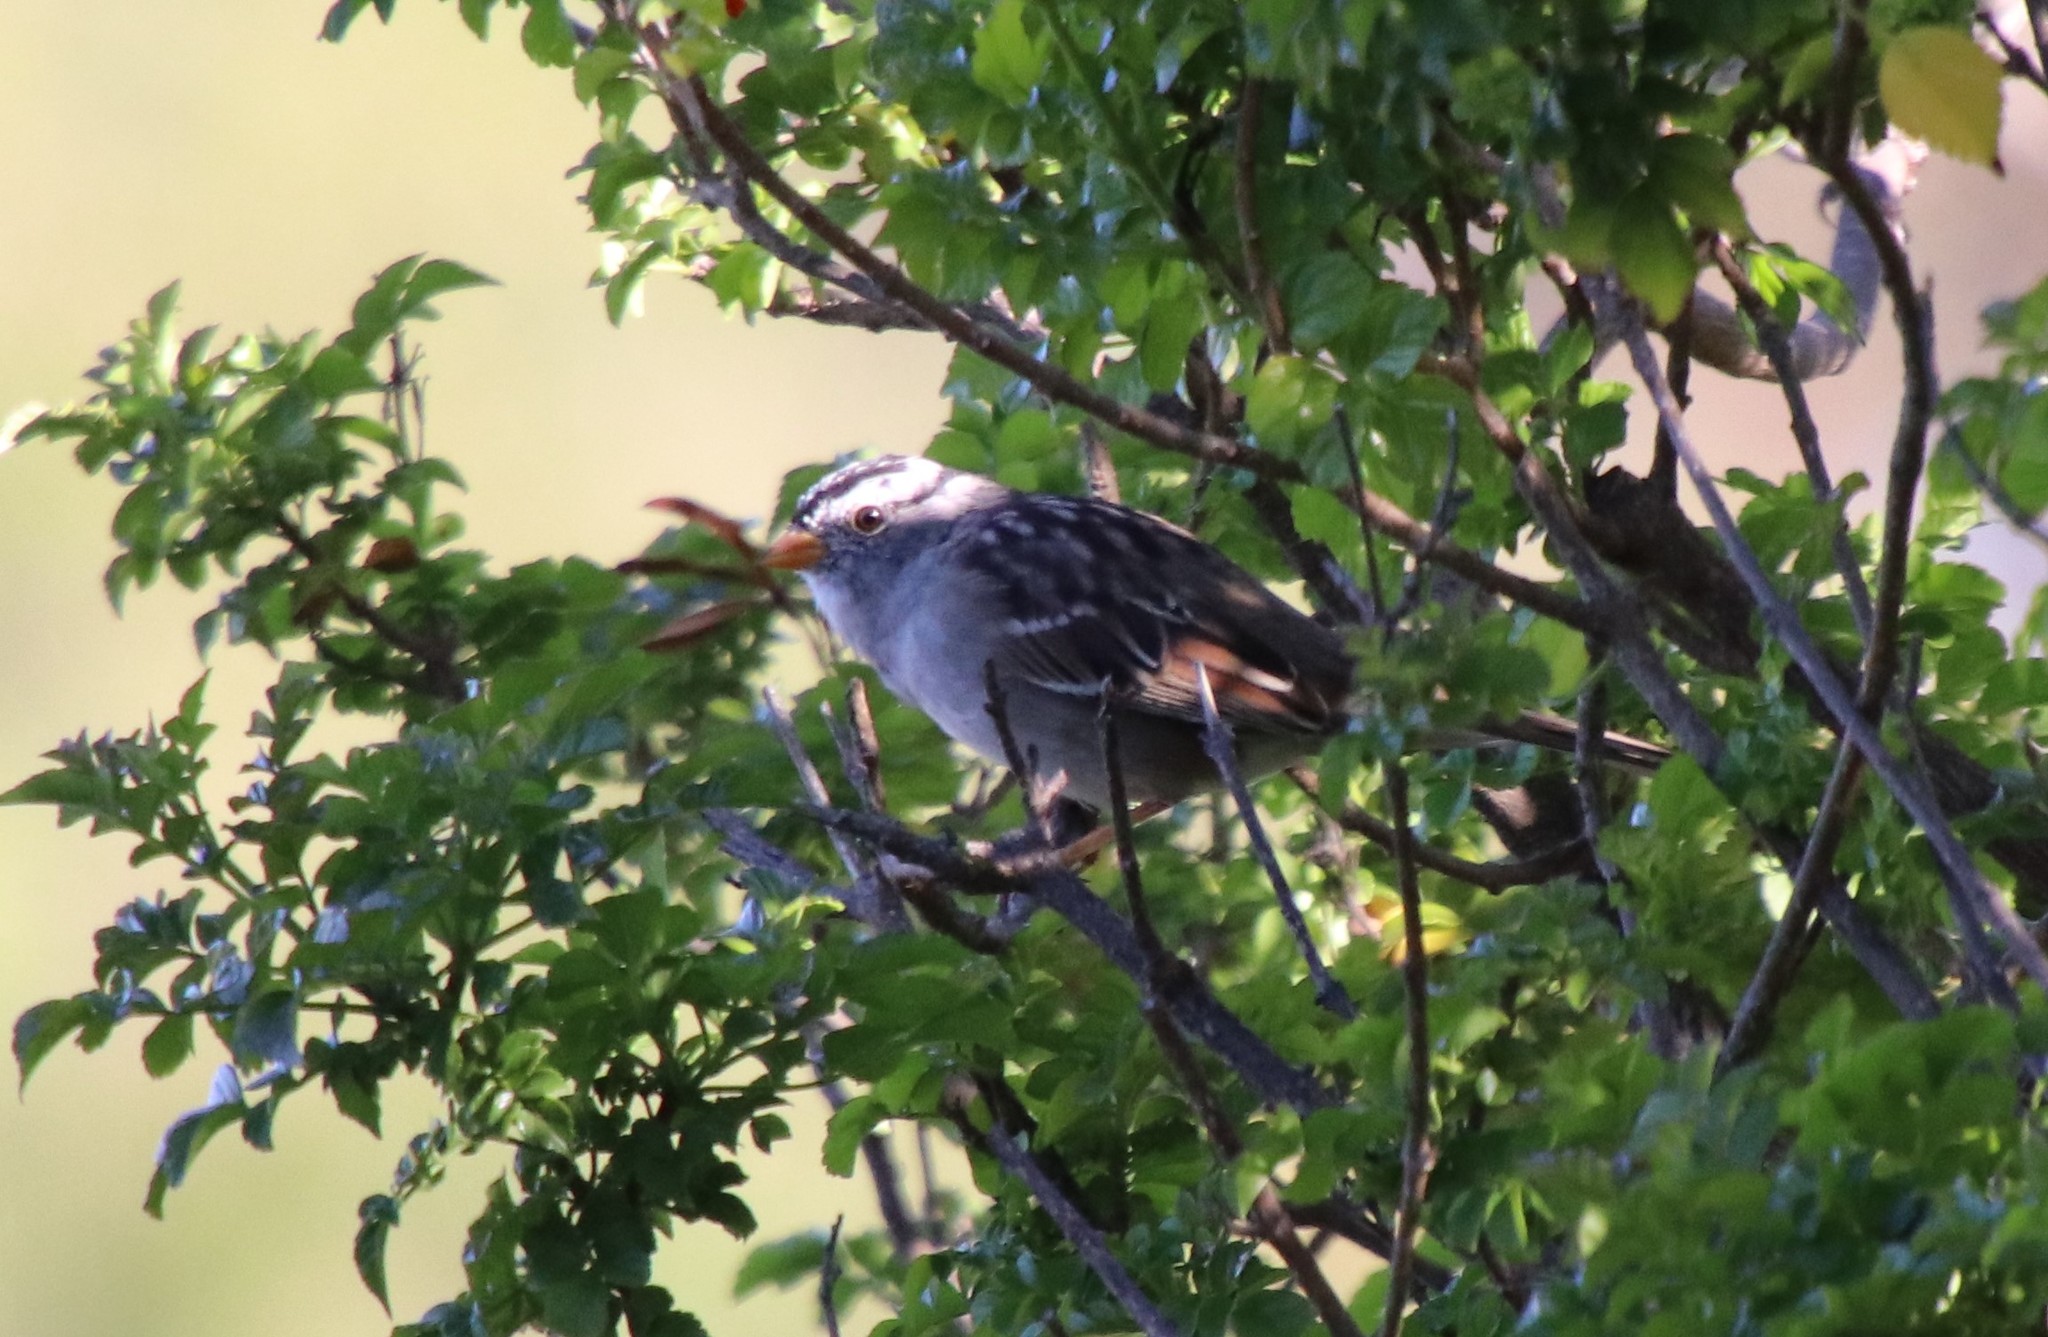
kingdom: Animalia
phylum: Chordata
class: Aves
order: Passeriformes
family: Passerellidae
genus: Zonotrichia
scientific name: Zonotrichia leucophrys
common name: White-crowned sparrow
